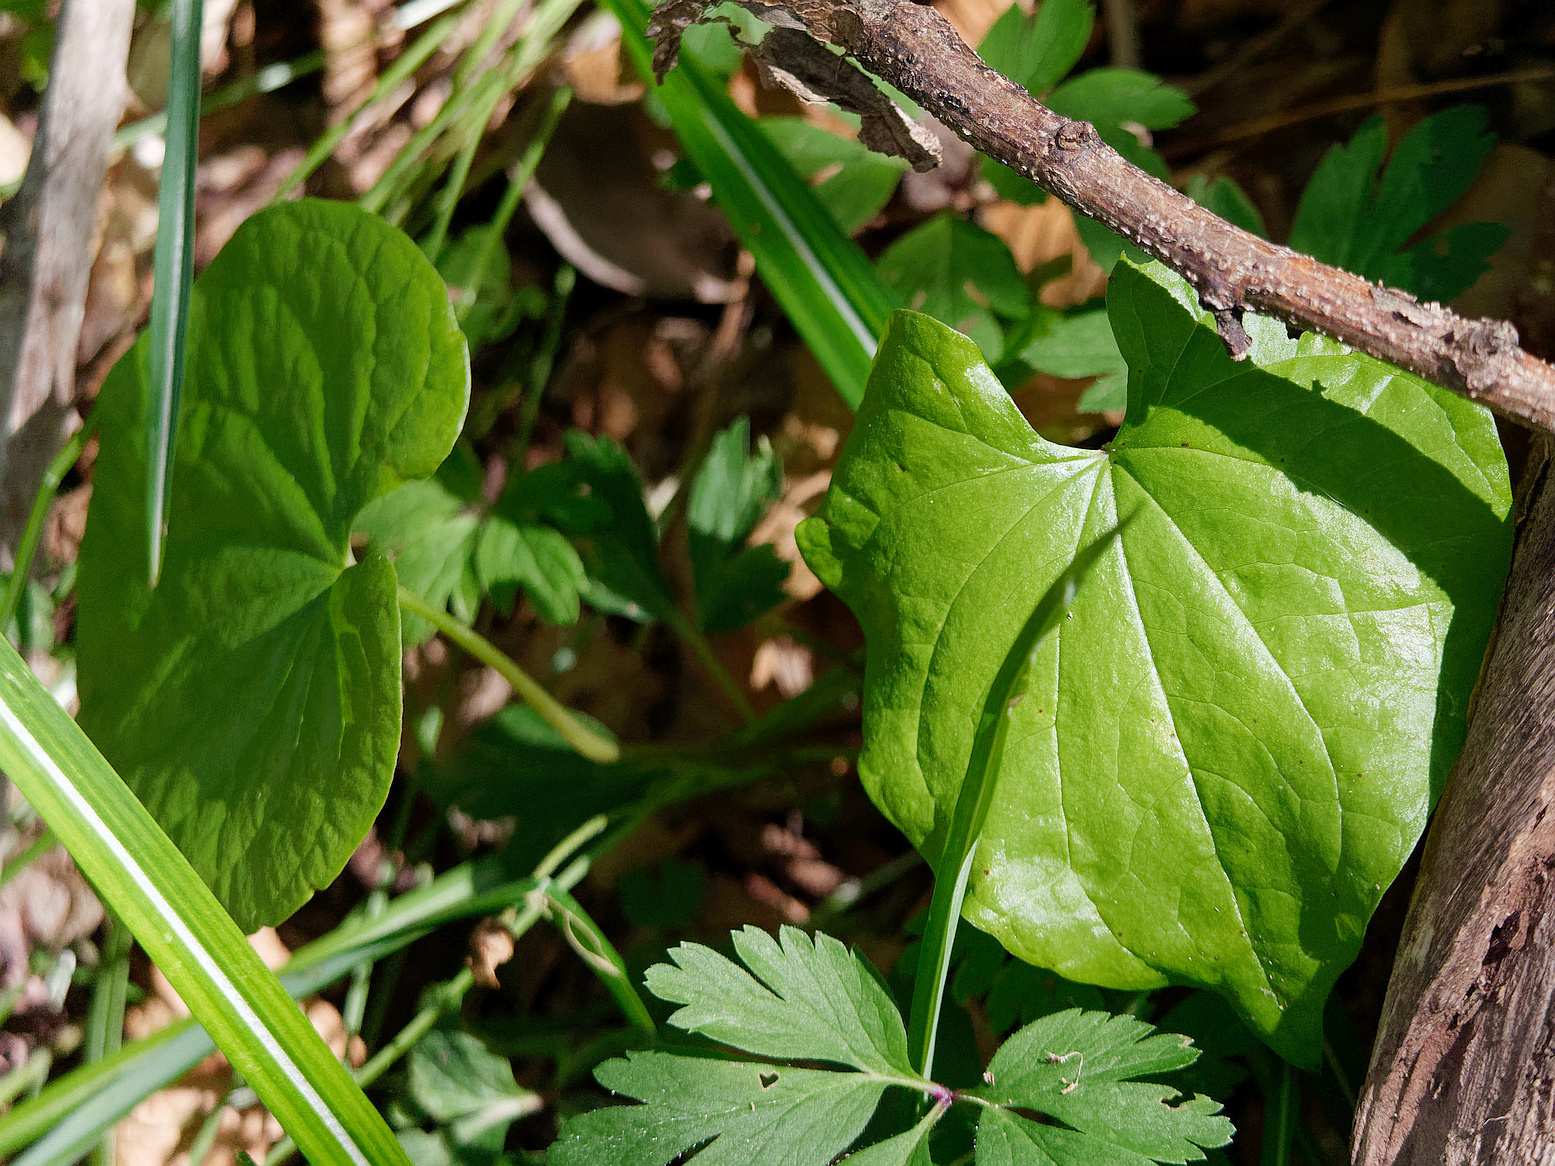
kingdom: Plantae
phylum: Tracheophyta
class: Liliopsida
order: Dioscoreales
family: Dioscoreaceae
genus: Dioscorea
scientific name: Dioscorea communis
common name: Black-bindweed
